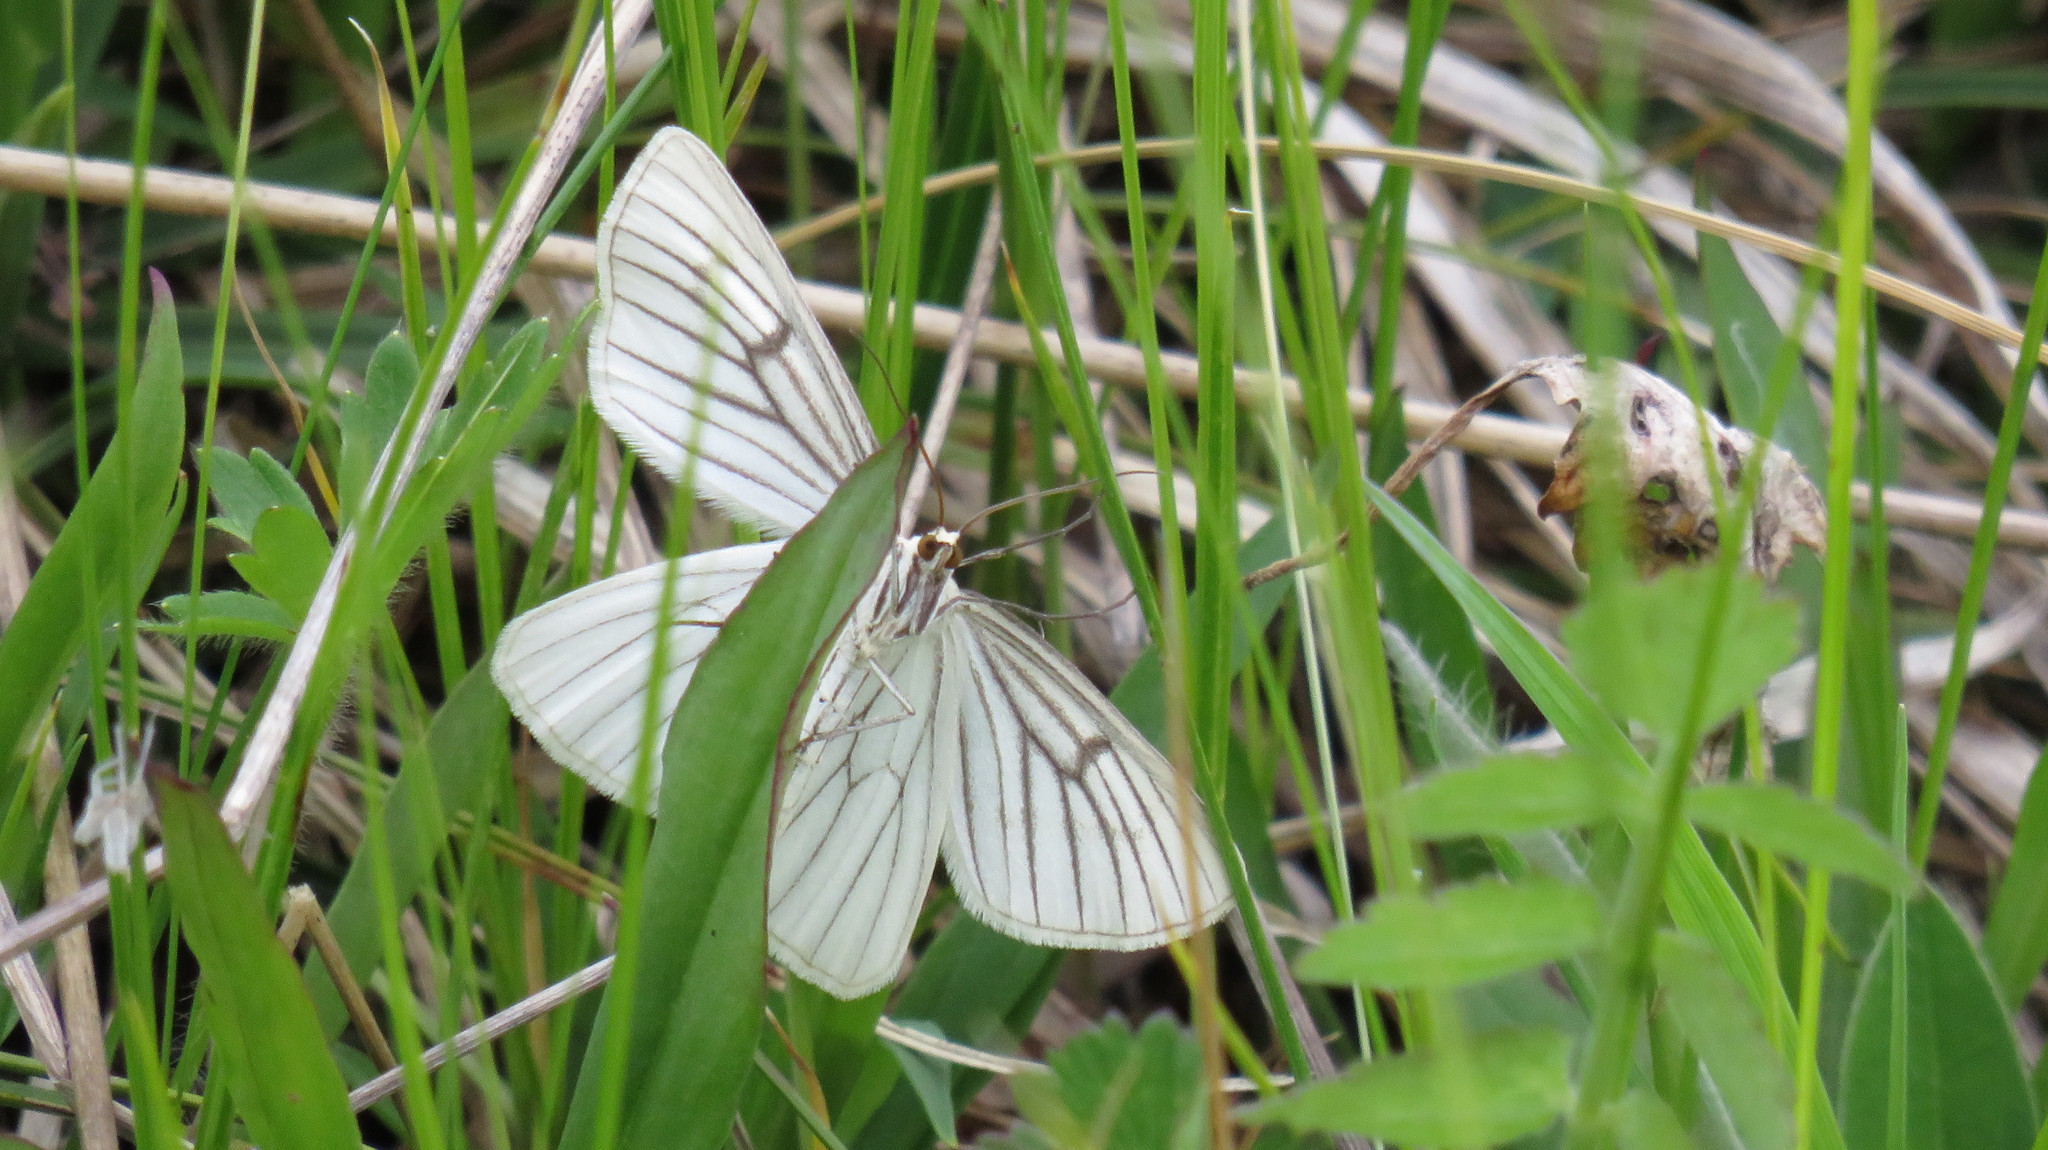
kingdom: Animalia
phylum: Arthropoda
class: Insecta
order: Lepidoptera
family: Geometridae
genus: Siona
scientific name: Siona lineata
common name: Black-veined moth
